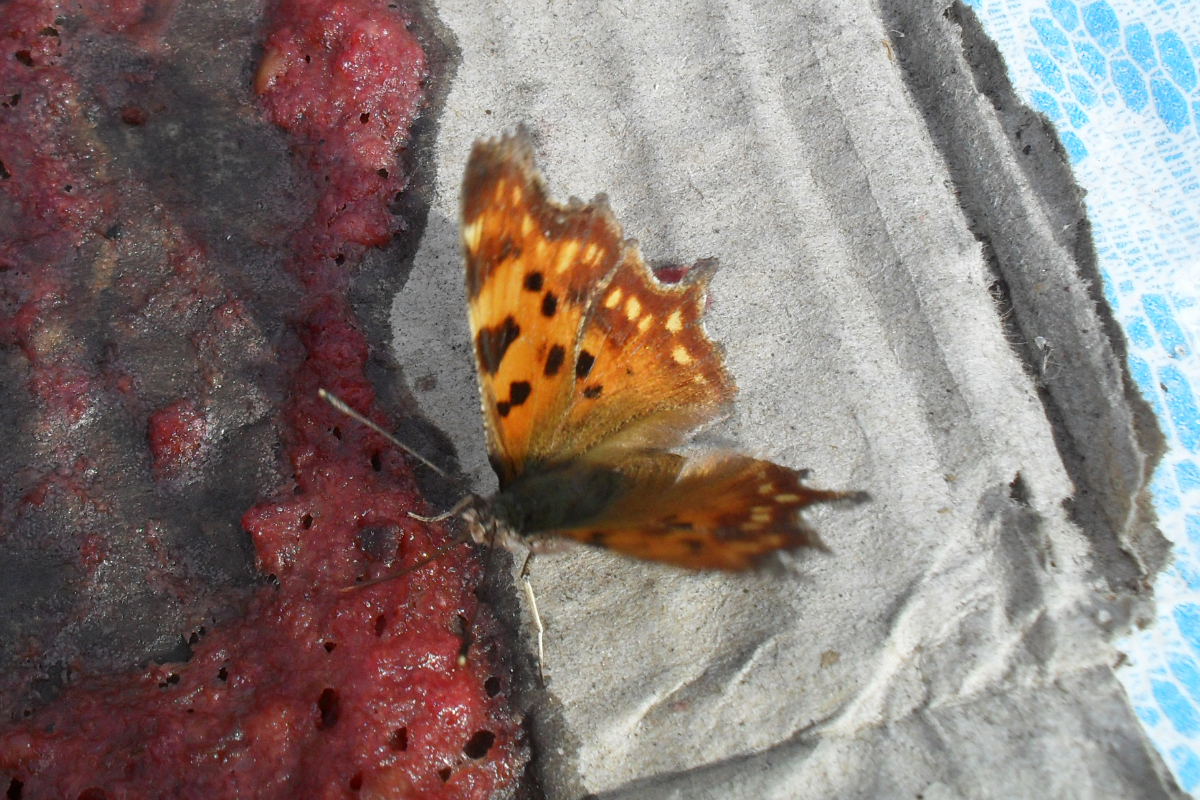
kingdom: Animalia
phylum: Arthropoda
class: Insecta
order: Lepidoptera
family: Nymphalidae
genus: Polygonia
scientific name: Polygonia c-album
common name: Comma
